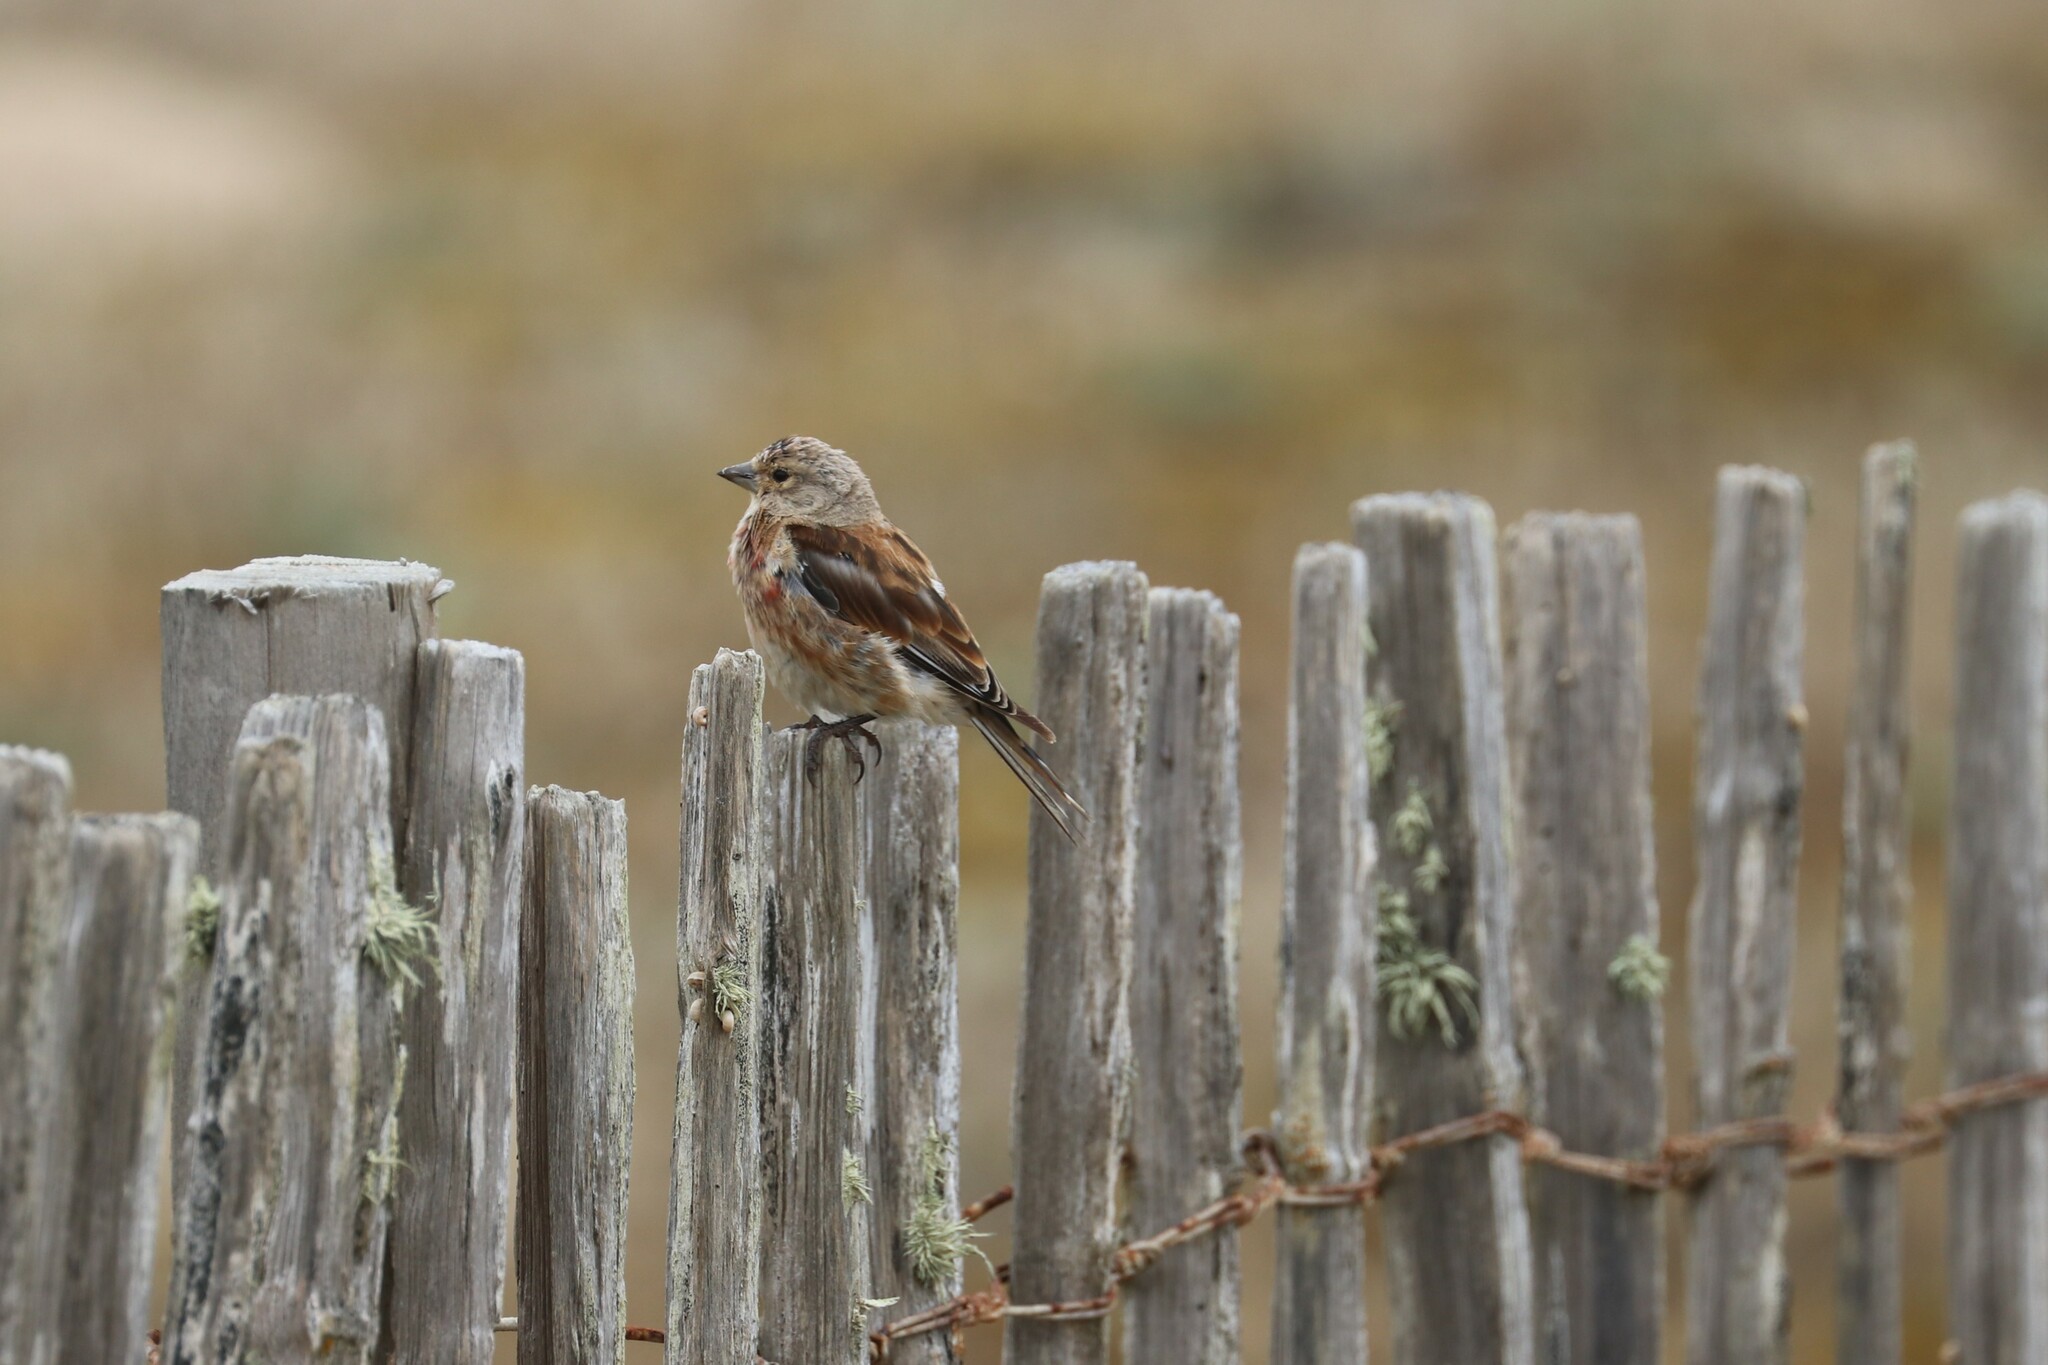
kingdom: Animalia
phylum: Chordata
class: Aves
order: Passeriformes
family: Fringillidae
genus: Linaria
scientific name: Linaria cannabina
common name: Common linnet
